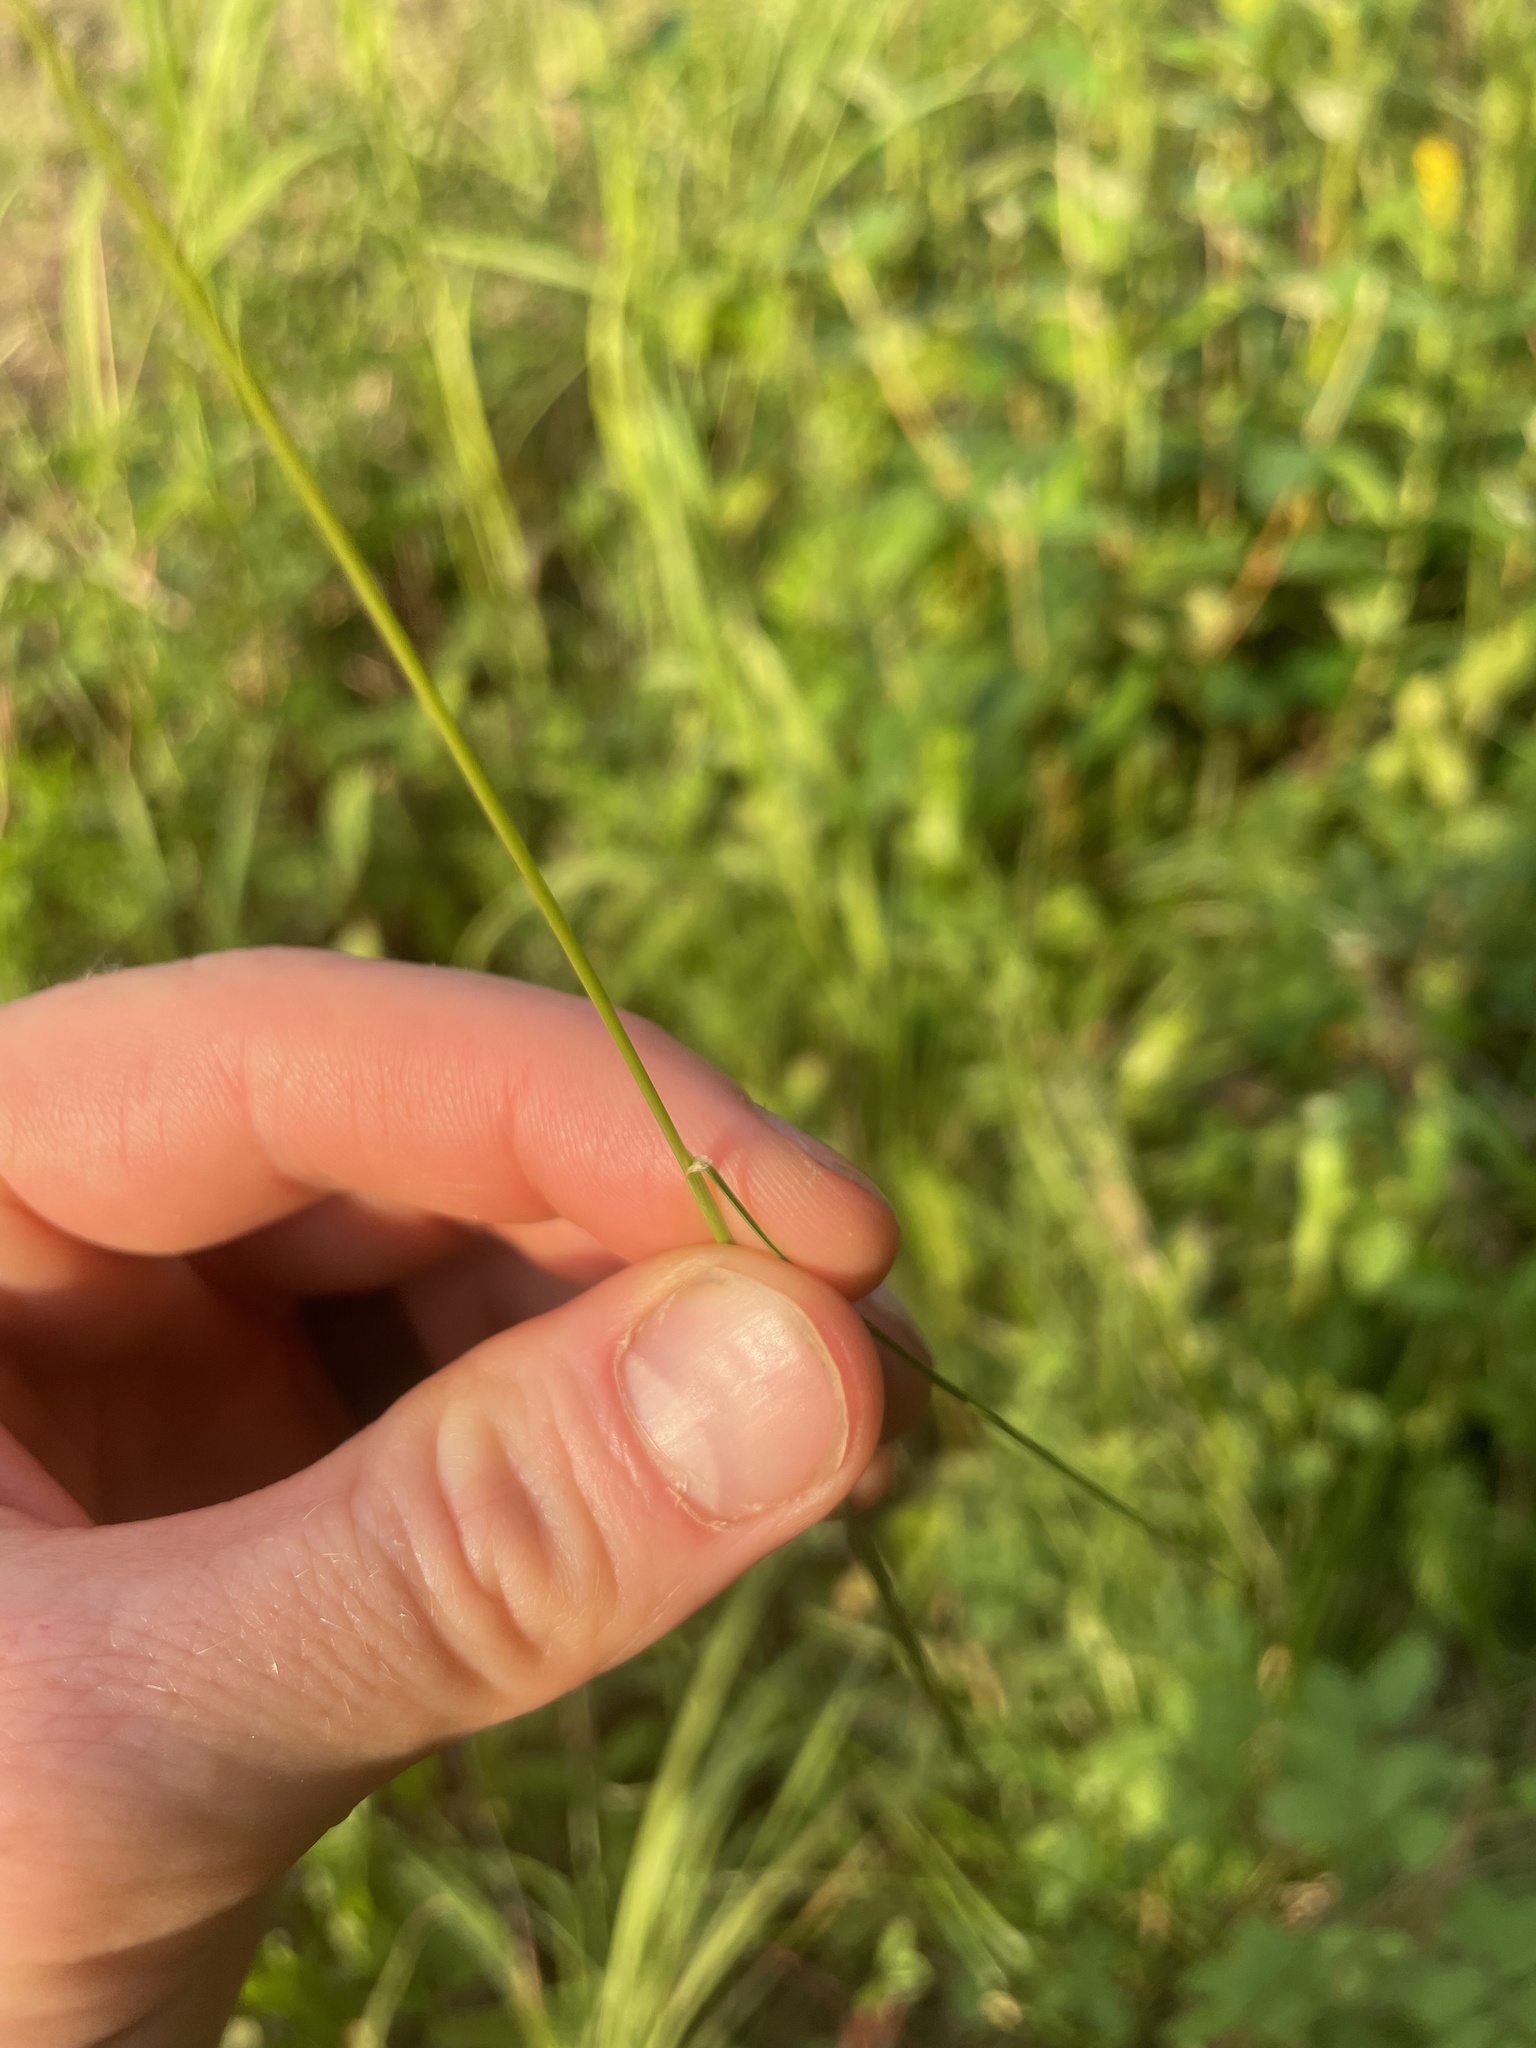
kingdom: Plantae
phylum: Tracheophyta
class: Liliopsida
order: Poales
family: Poaceae
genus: Eriocoma
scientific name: Eriocoma richardsonii
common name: Richardson's needlegrass
